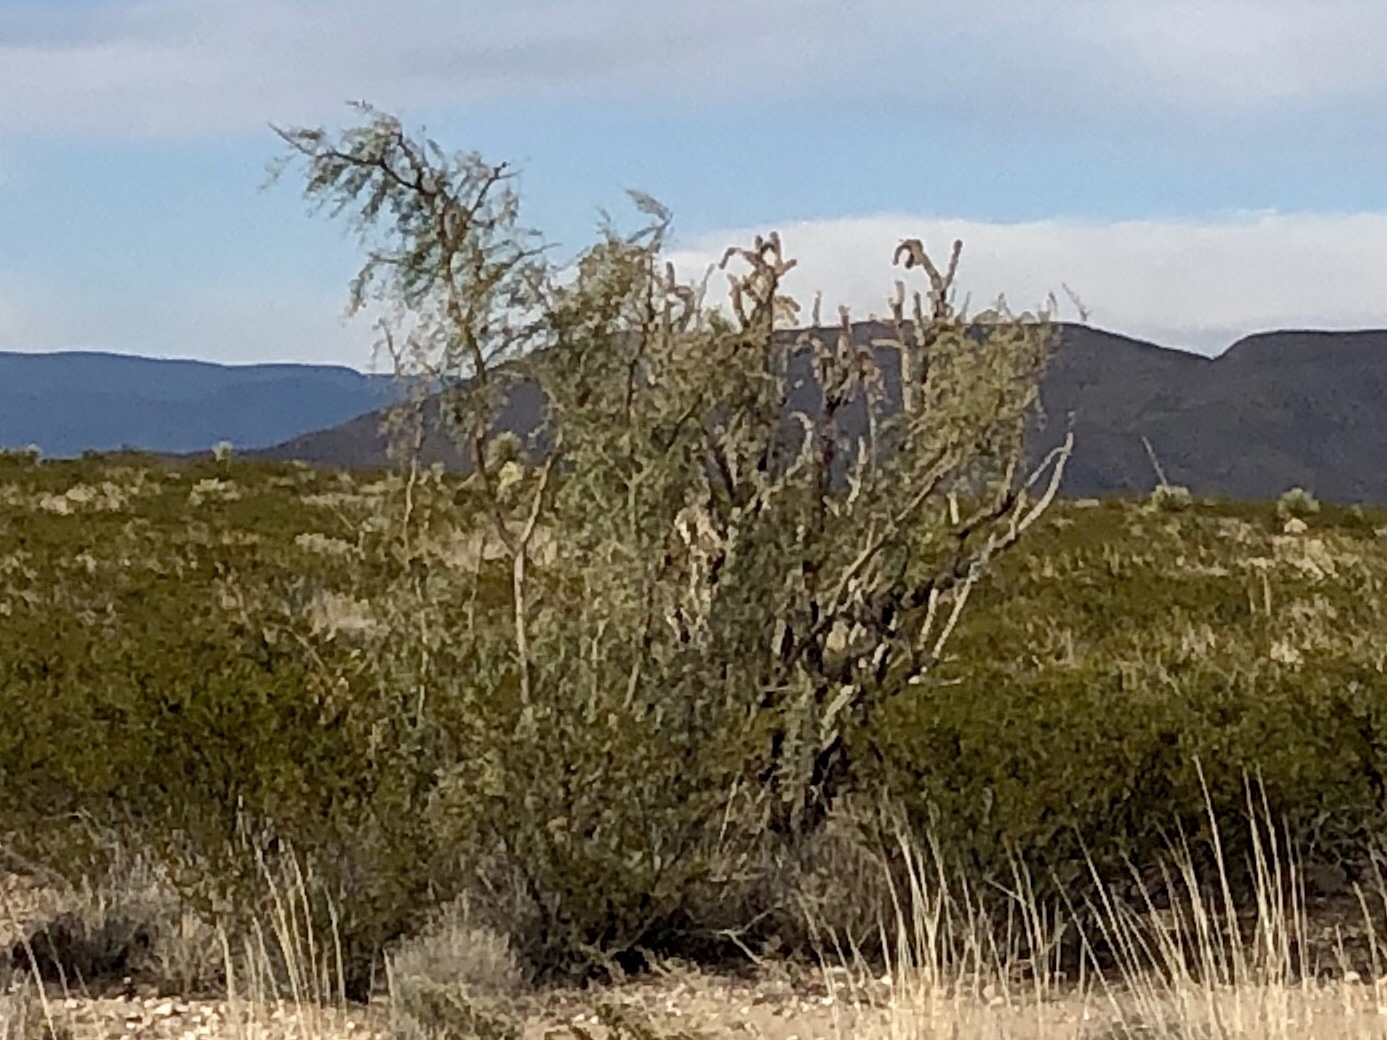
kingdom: Plantae
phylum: Tracheophyta
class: Magnoliopsida
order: Fabales
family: Fabaceae
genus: Prosopis
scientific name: Prosopis glandulosa
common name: Honey mesquite
